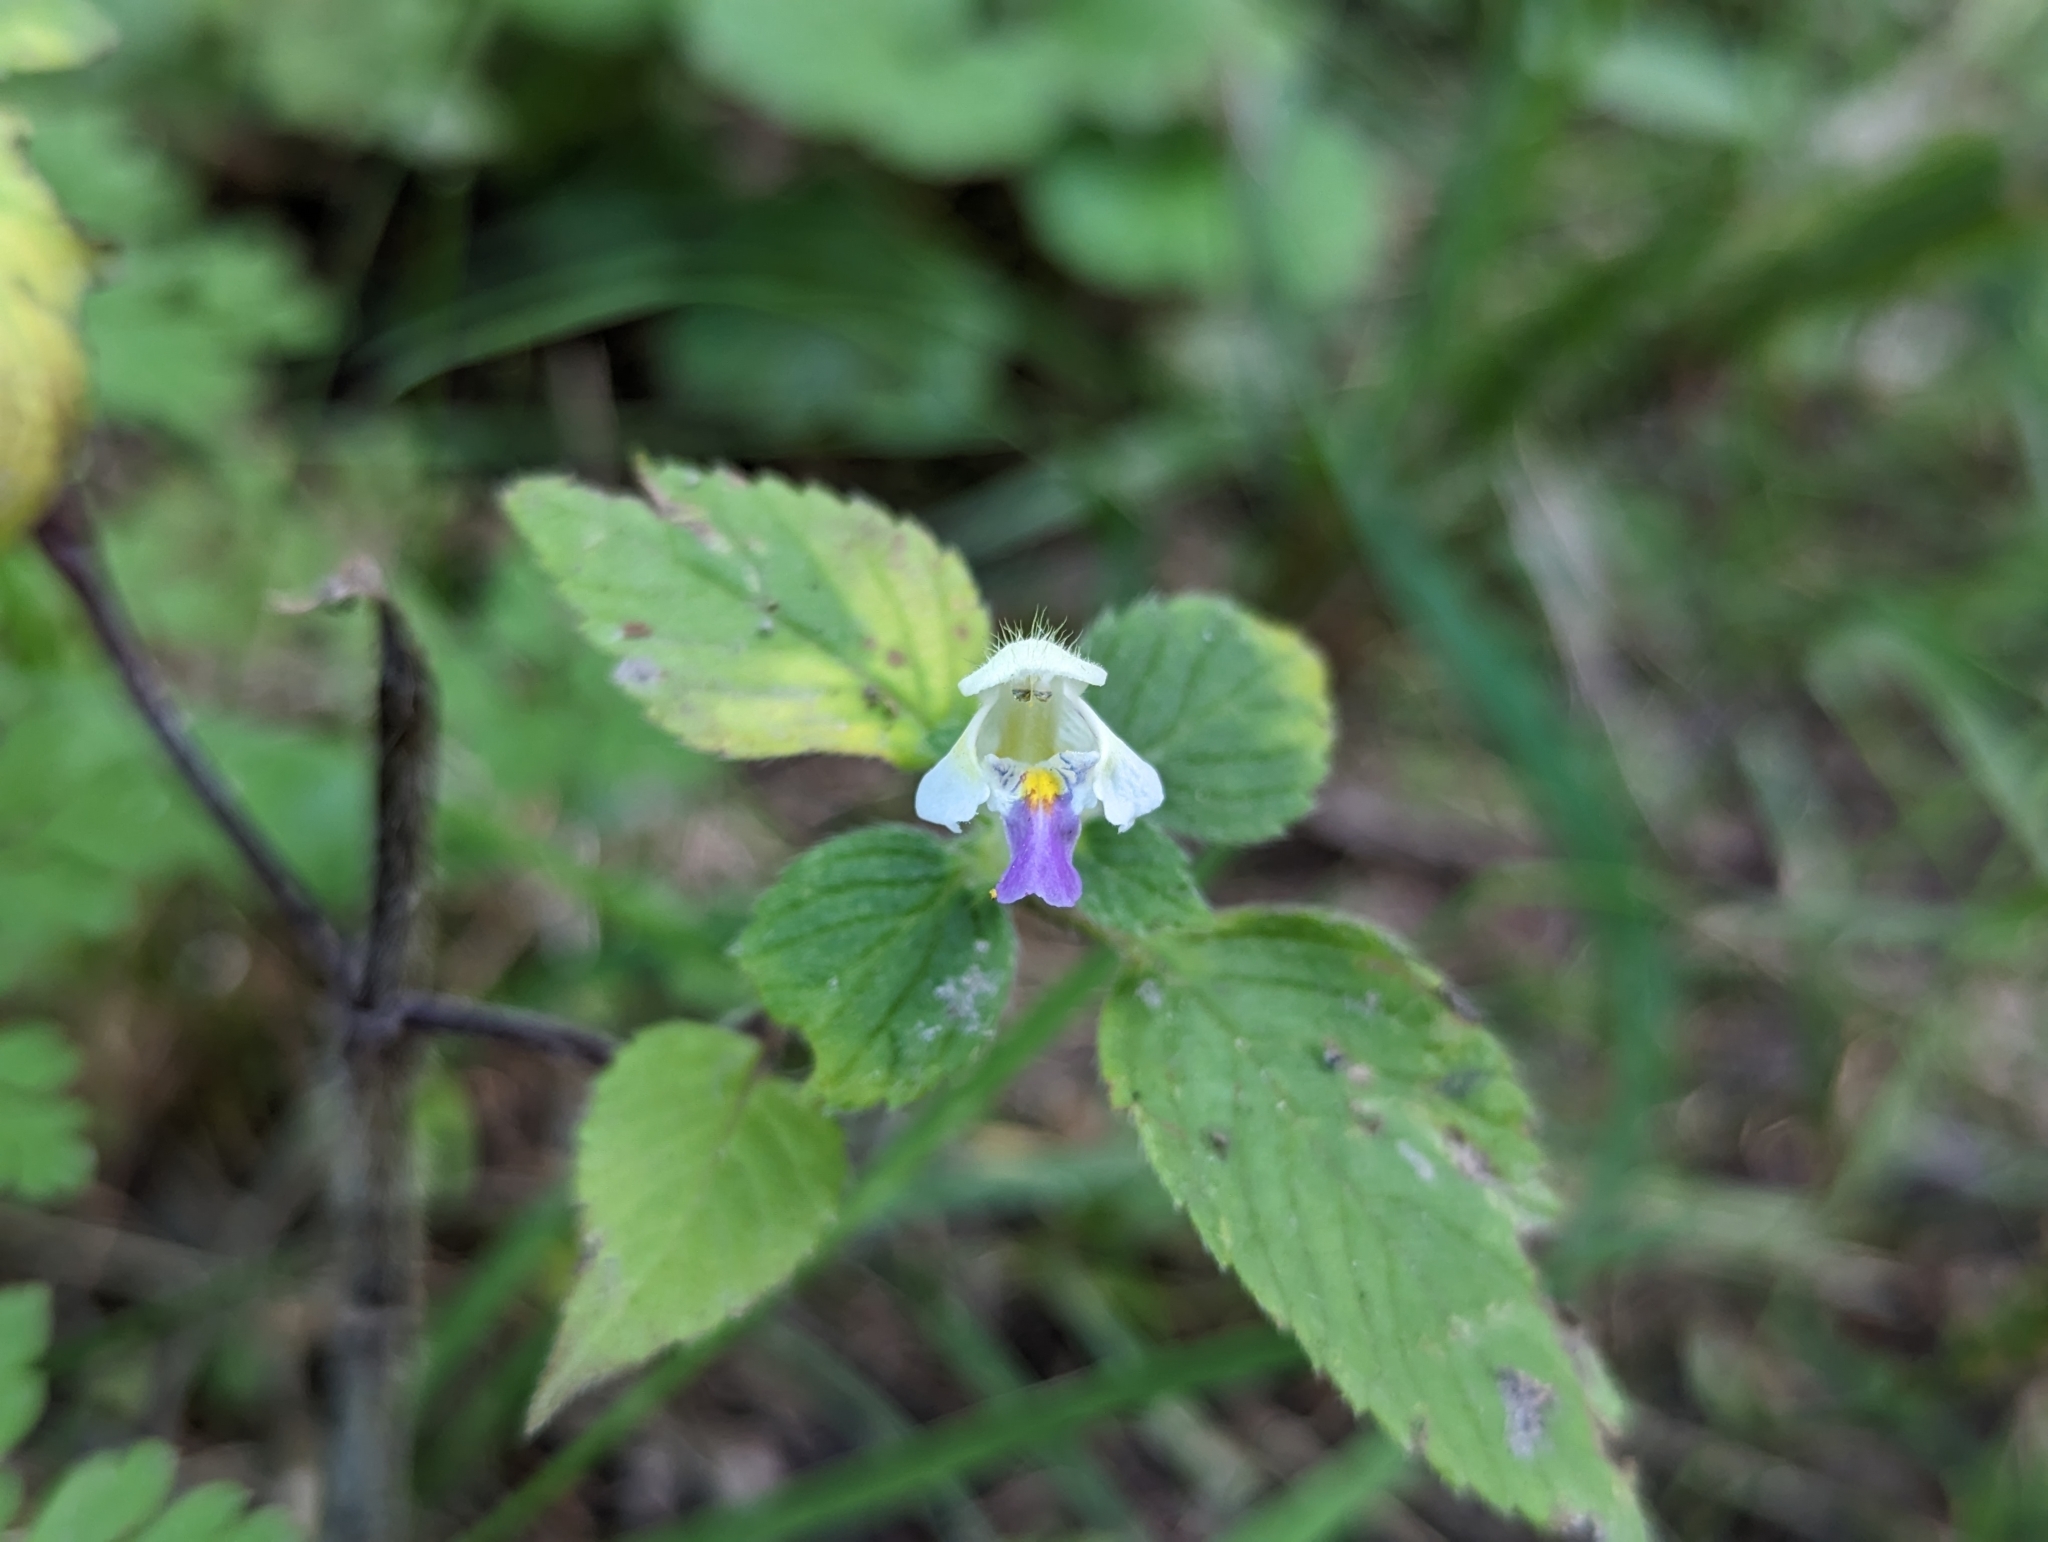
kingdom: Plantae
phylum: Tracheophyta
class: Magnoliopsida
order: Lamiales
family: Lamiaceae
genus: Galeopsis
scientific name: Galeopsis speciosa
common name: Large-flowered hemp-nettle
